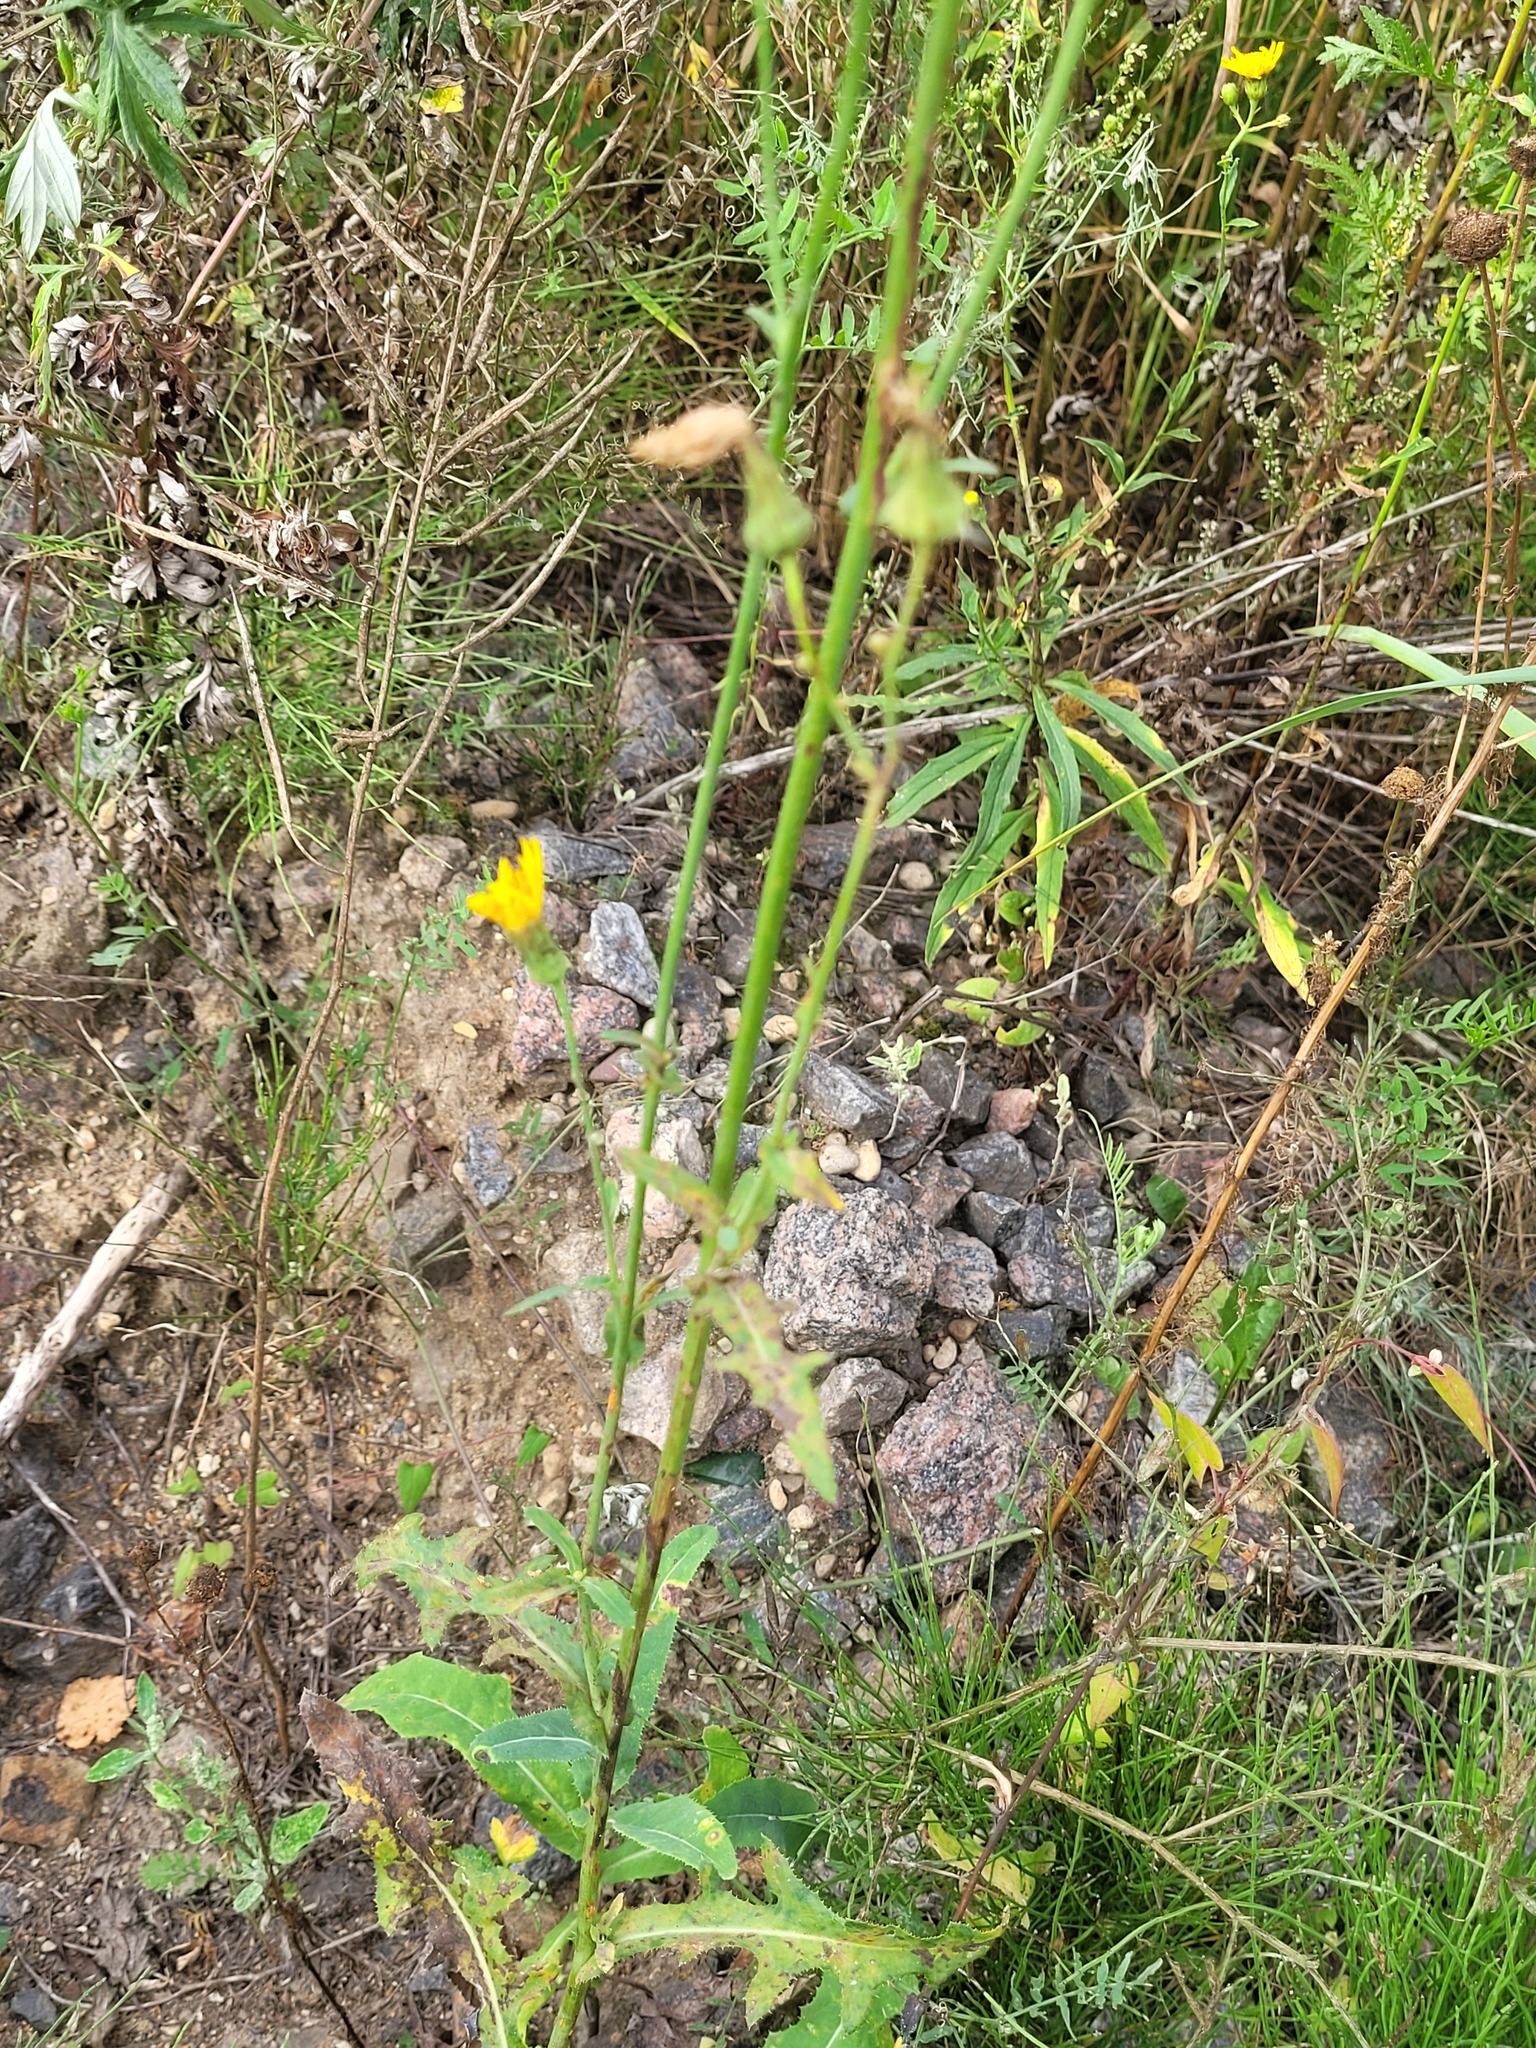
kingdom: Plantae
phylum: Tracheophyta
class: Magnoliopsida
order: Asterales
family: Asteraceae
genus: Sonchus
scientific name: Sonchus arvensis
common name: Perennial sow-thistle
